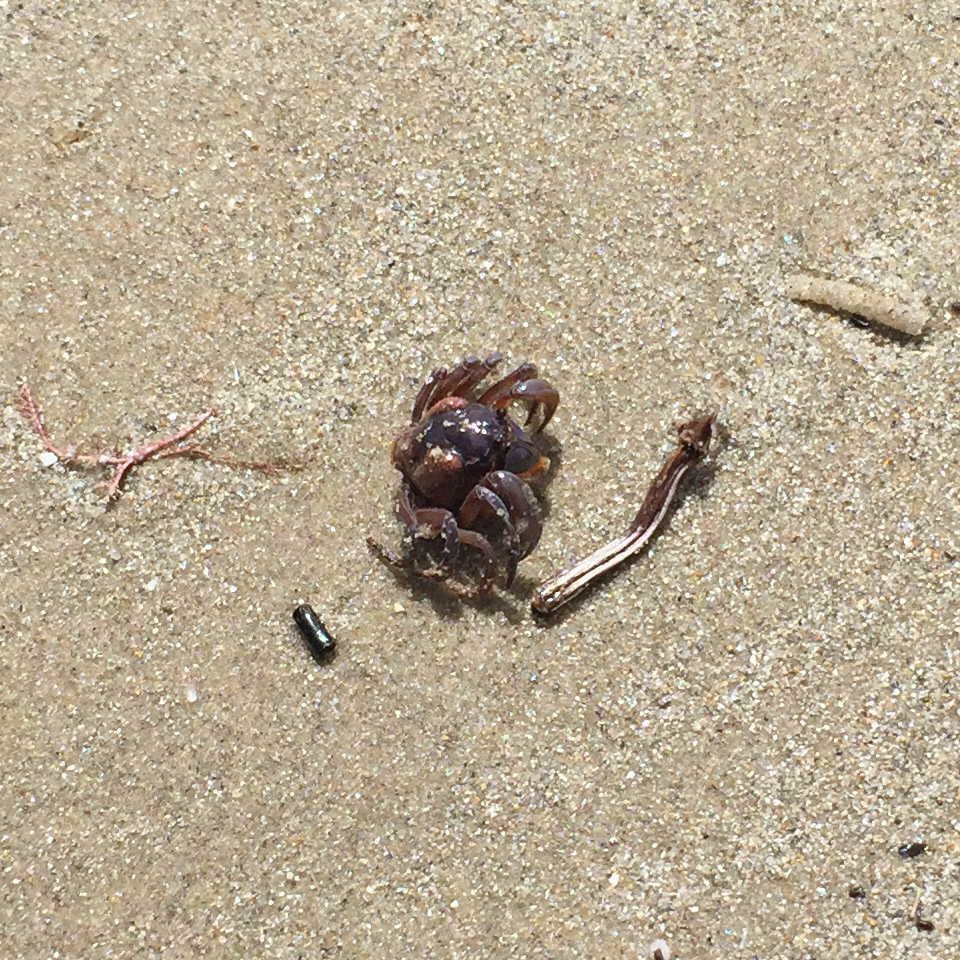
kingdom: Animalia
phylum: Arthropoda
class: Malacostraca
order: Decapoda
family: Mictyridae
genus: Mictyris
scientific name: Mictyris platycheles
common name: Dark blue soldier crab
